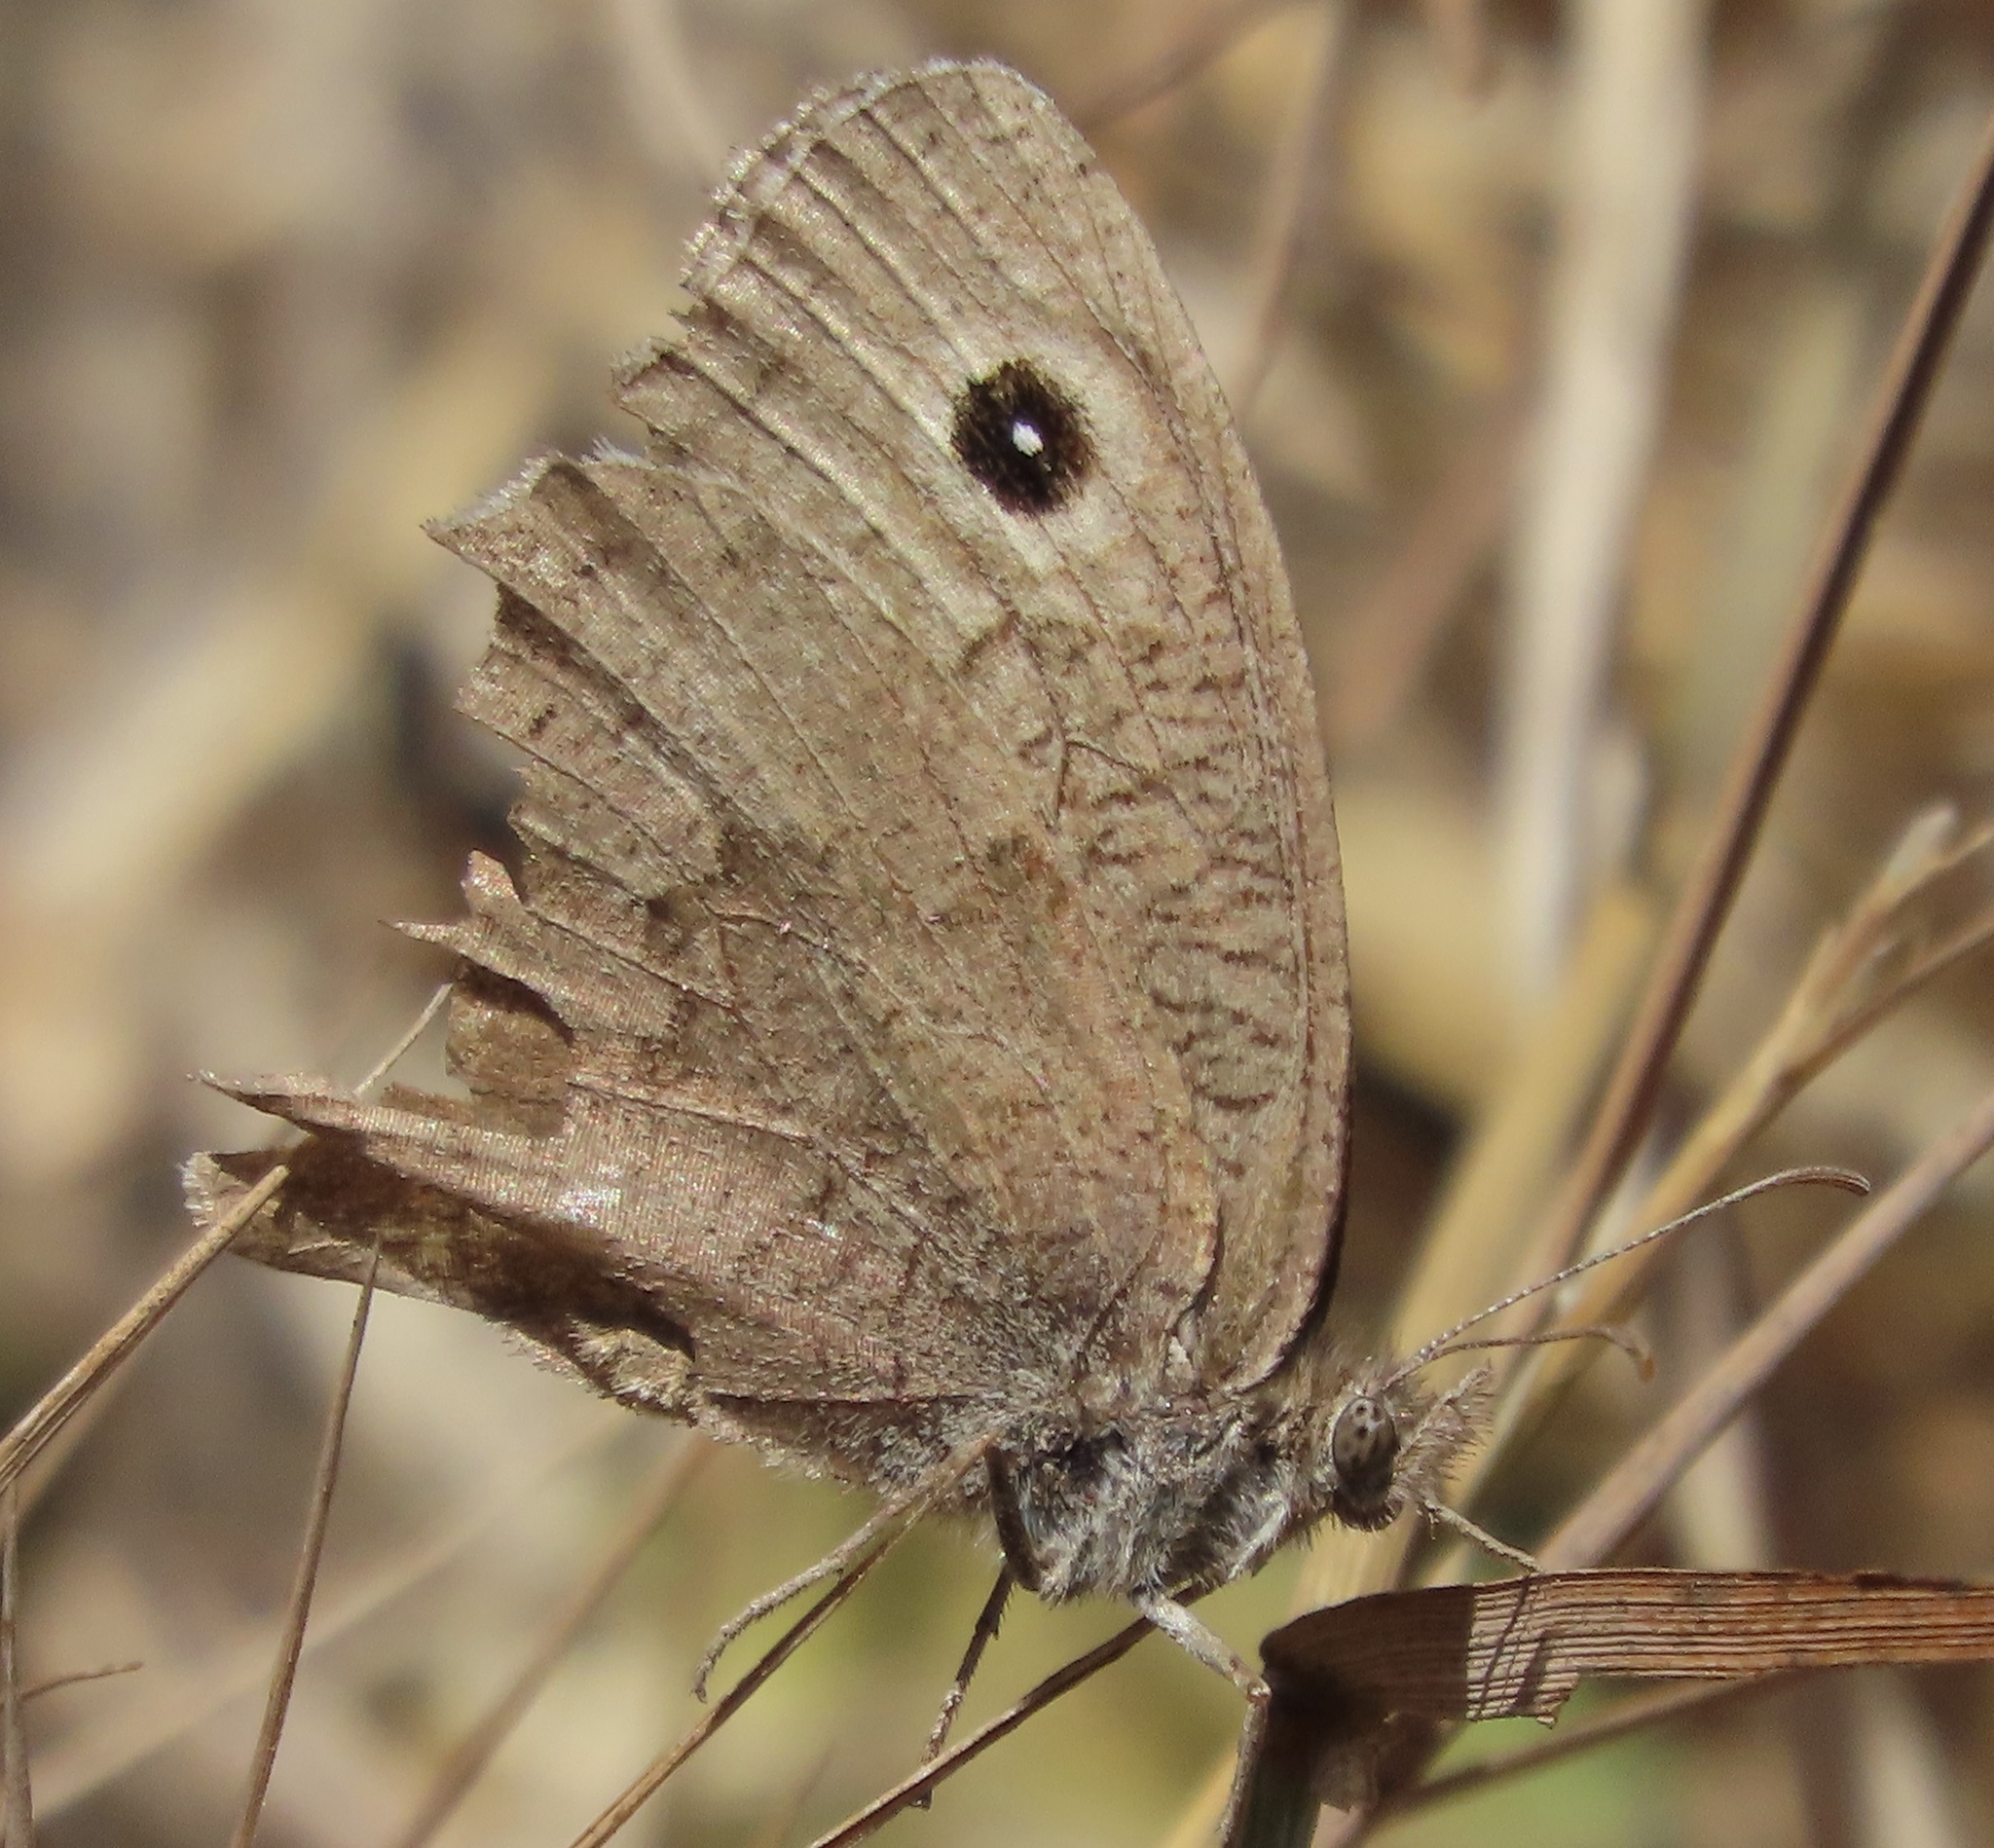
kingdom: Animalia
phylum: Arthropoda
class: Insecta
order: Lepidoptera
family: Nymphalidae
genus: Cercyonis
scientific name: Cercyonis sthenele
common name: Great basin wood-nymph
